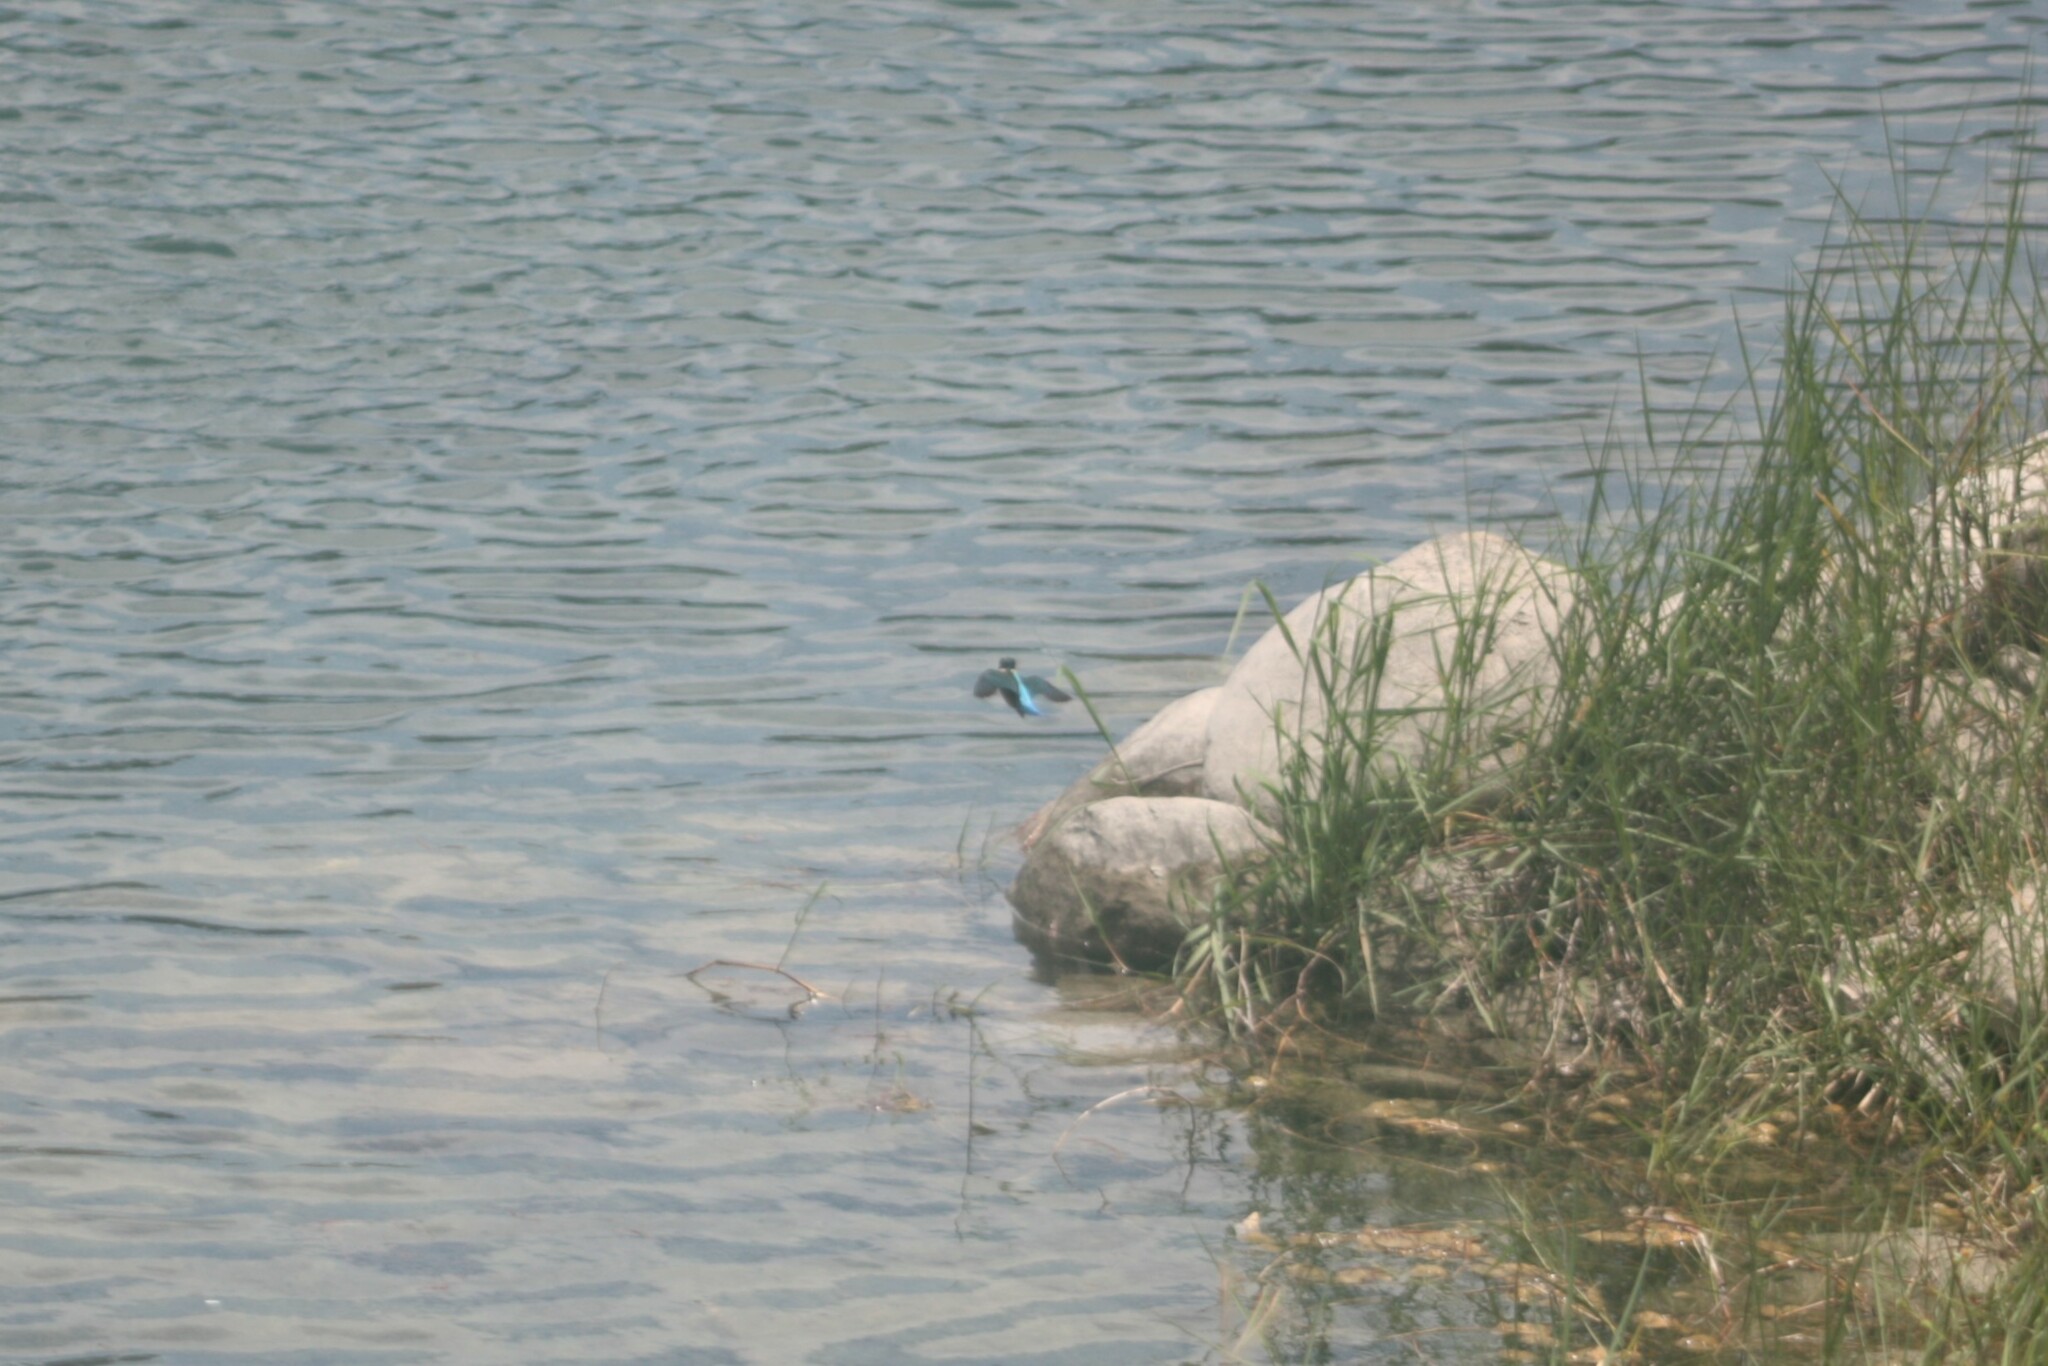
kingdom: Animalia
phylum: Chordata
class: Aves
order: Coraciiformes
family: Alcedinidae
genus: Alcedo
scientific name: Alcedo atthis
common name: Common kingfisher
